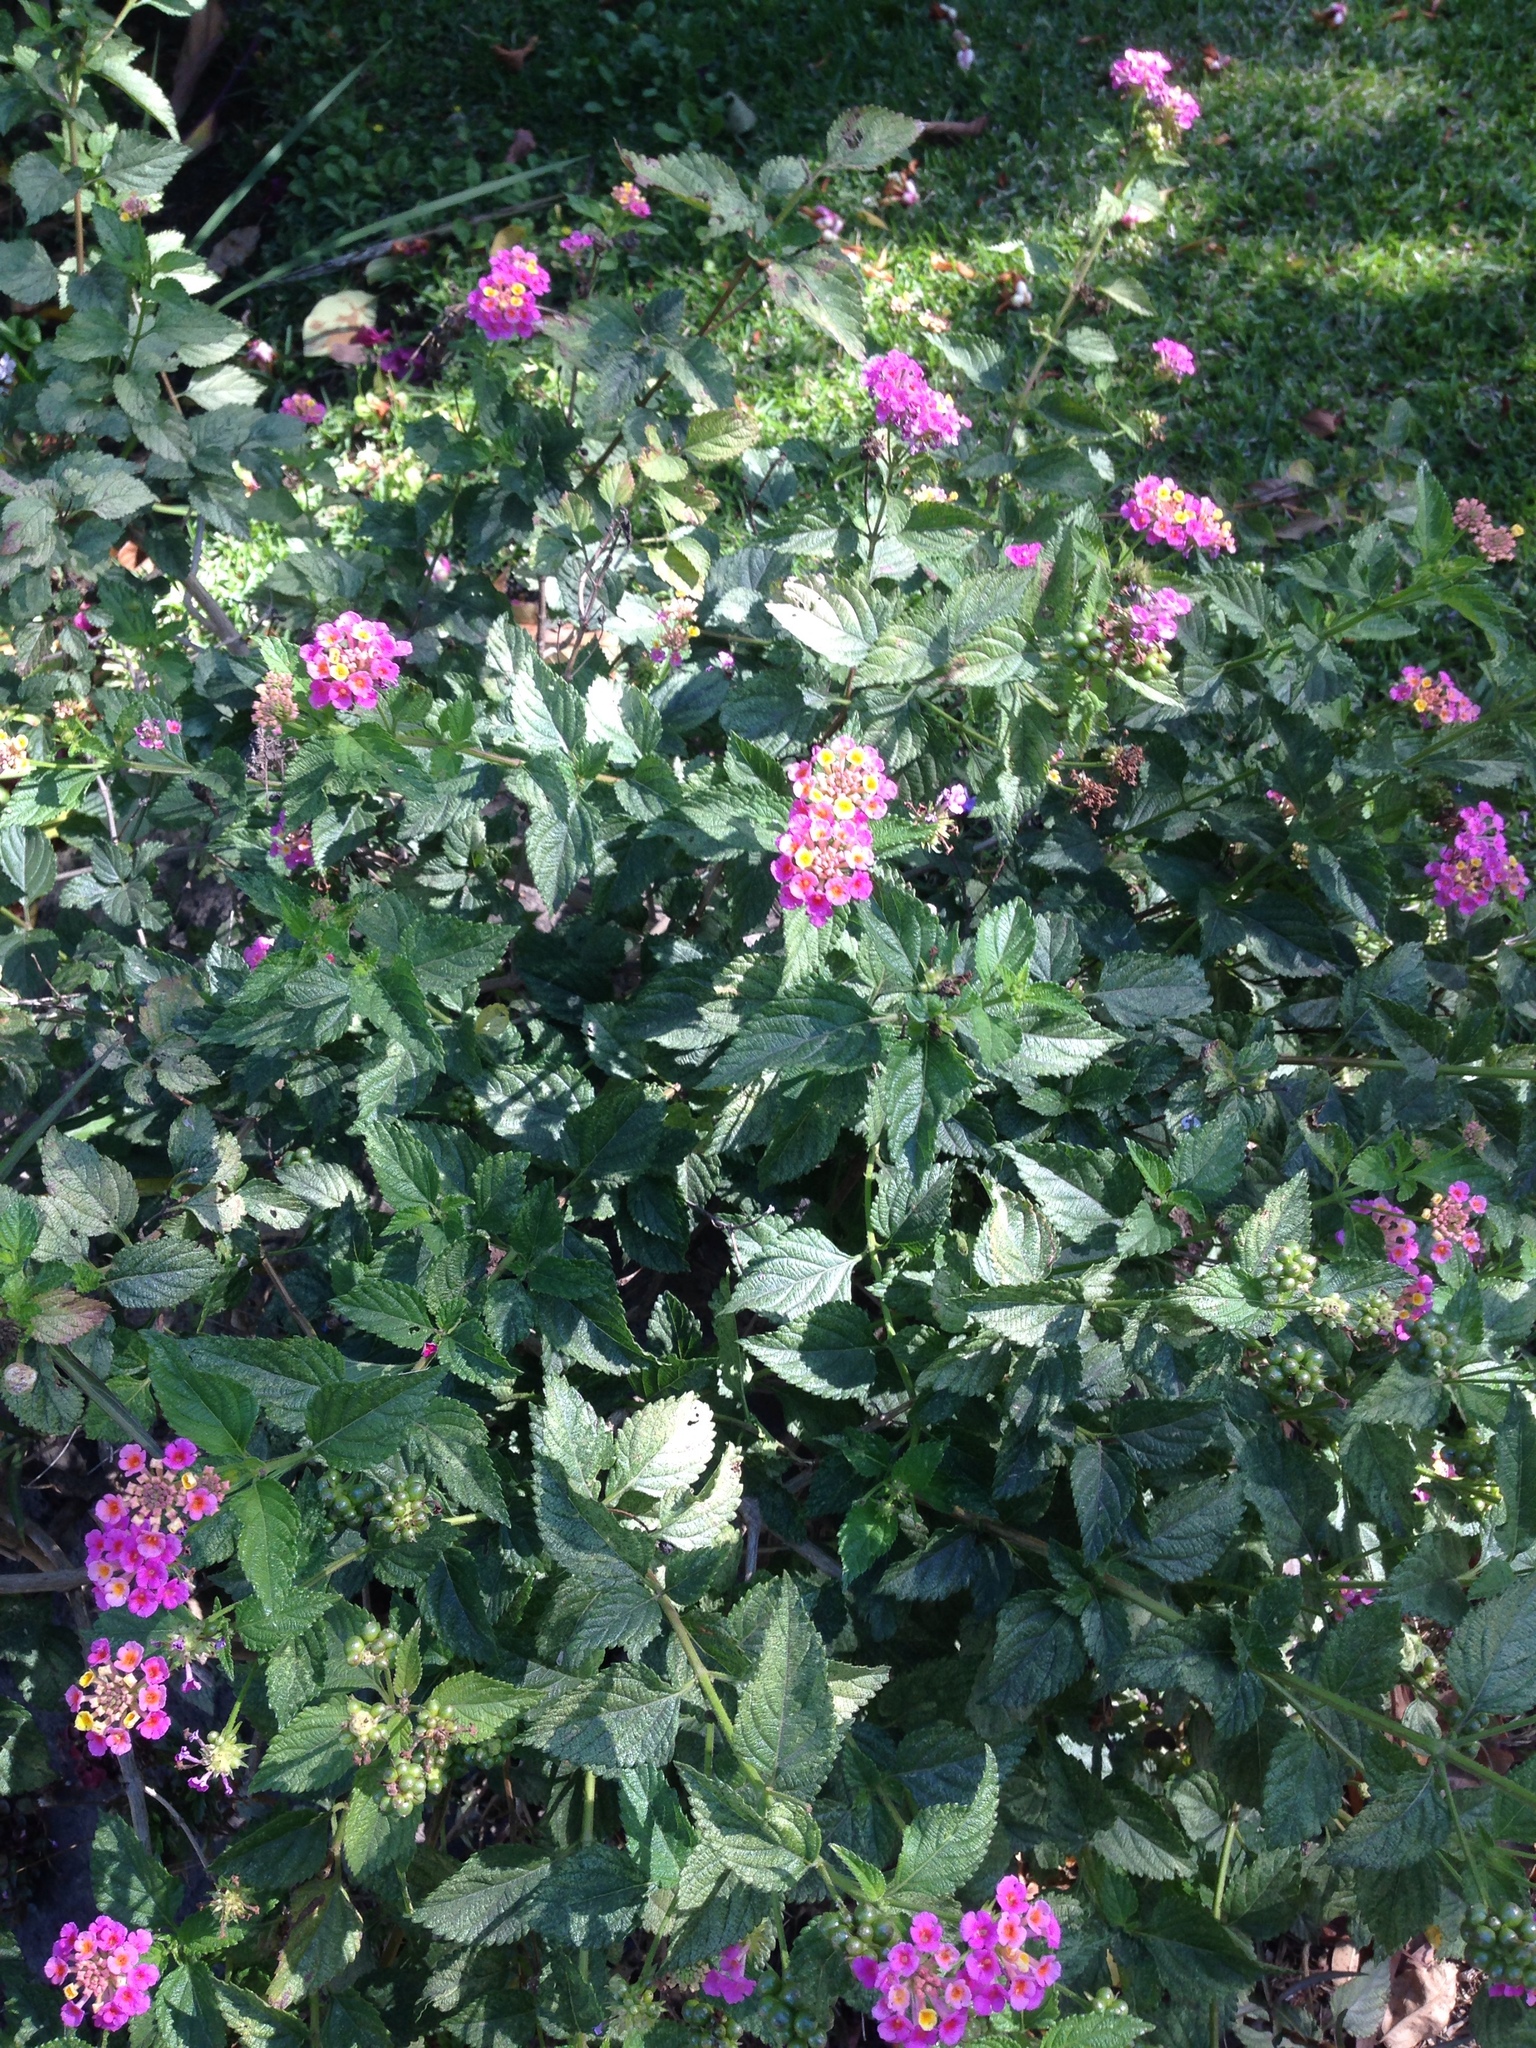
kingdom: Plantae
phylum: Tracheophyta
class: Magnoliopsida
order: Lamiales
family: Verbenaceae
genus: Lantana
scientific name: Lantana camara
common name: Lantana
